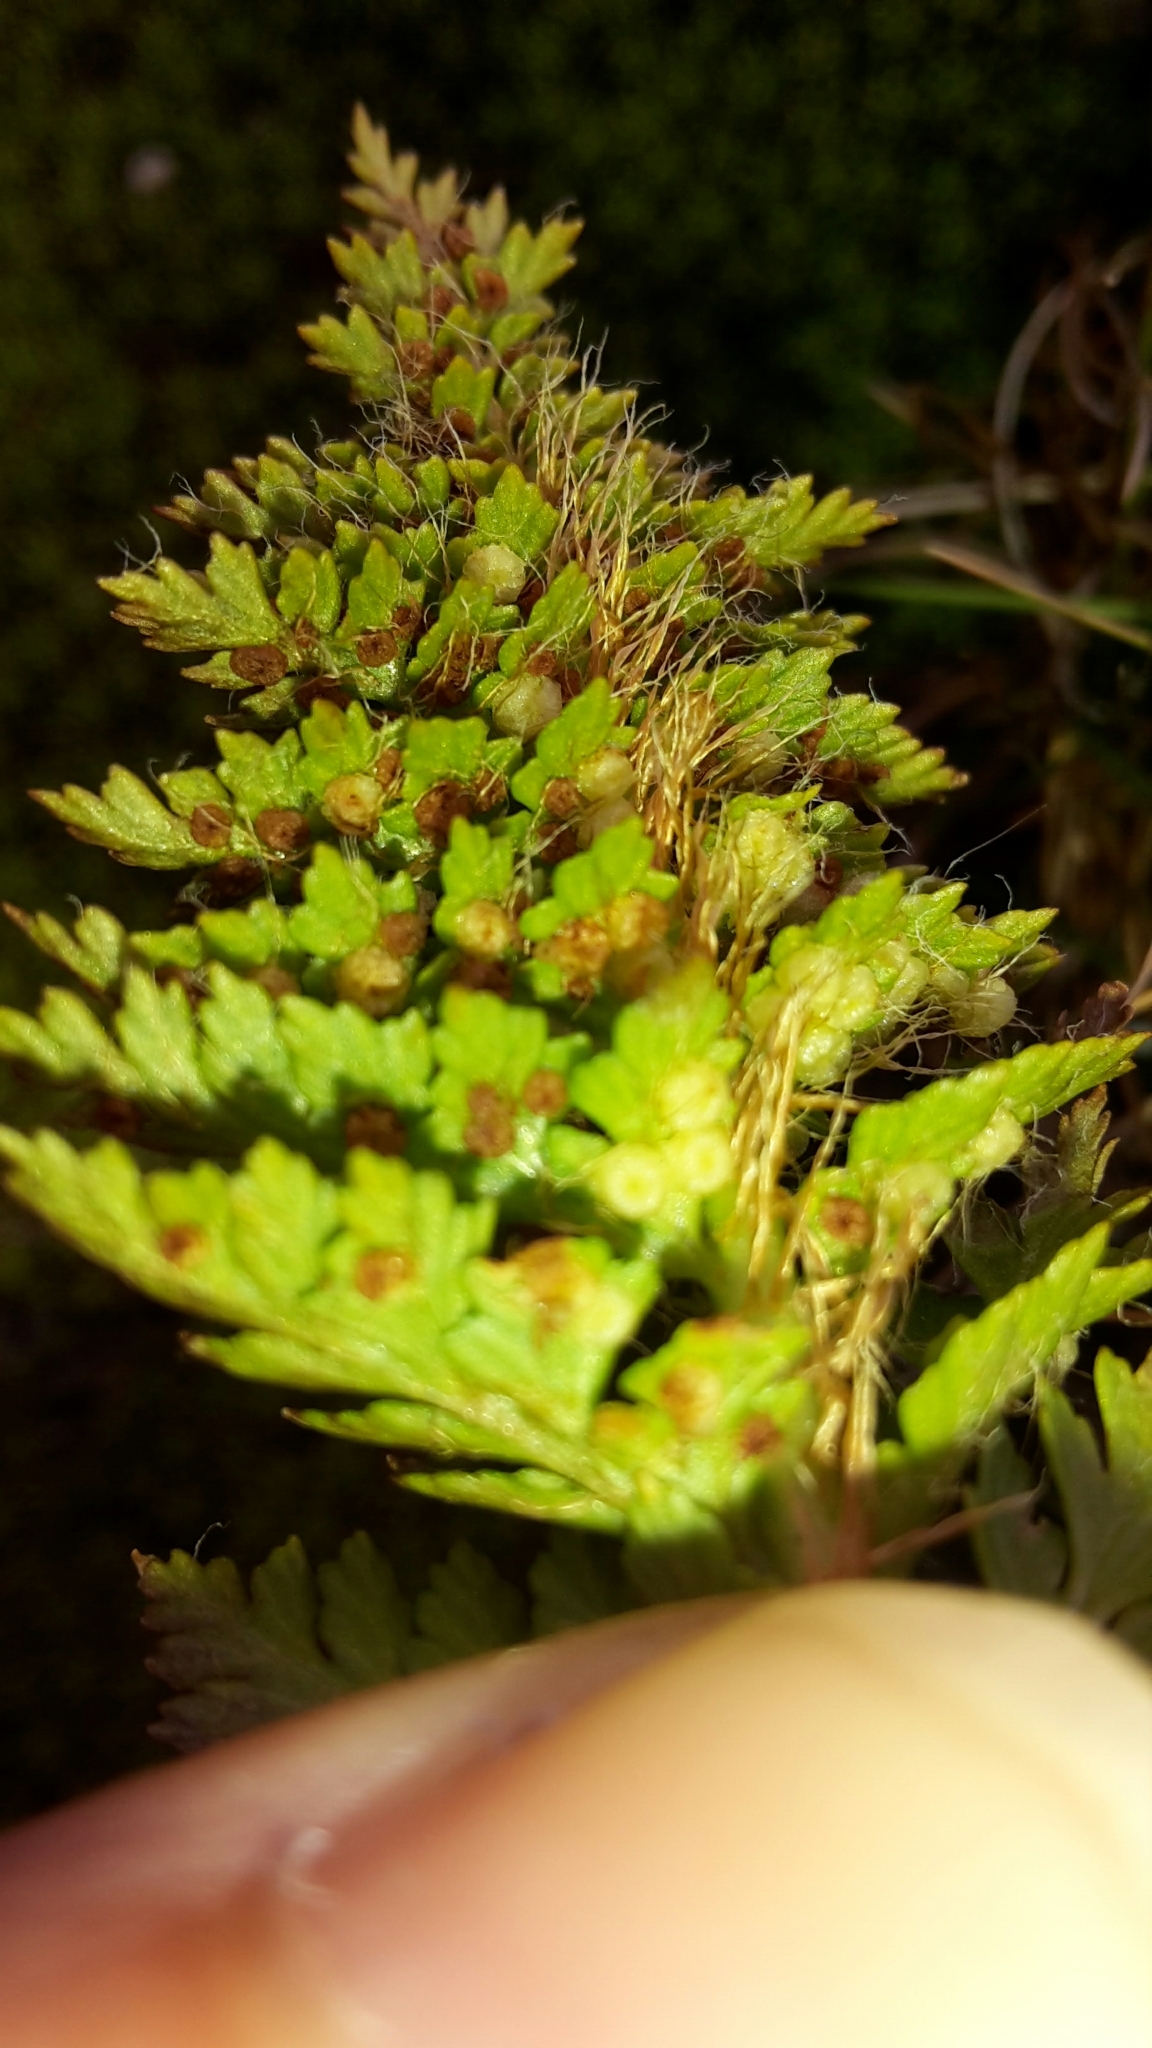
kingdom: Plantae
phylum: Tracheophyta
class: Polypodiopsida
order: Polypodiales
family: Dryopteridaceae
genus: Polystichum
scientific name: Polystichum cystostegia
